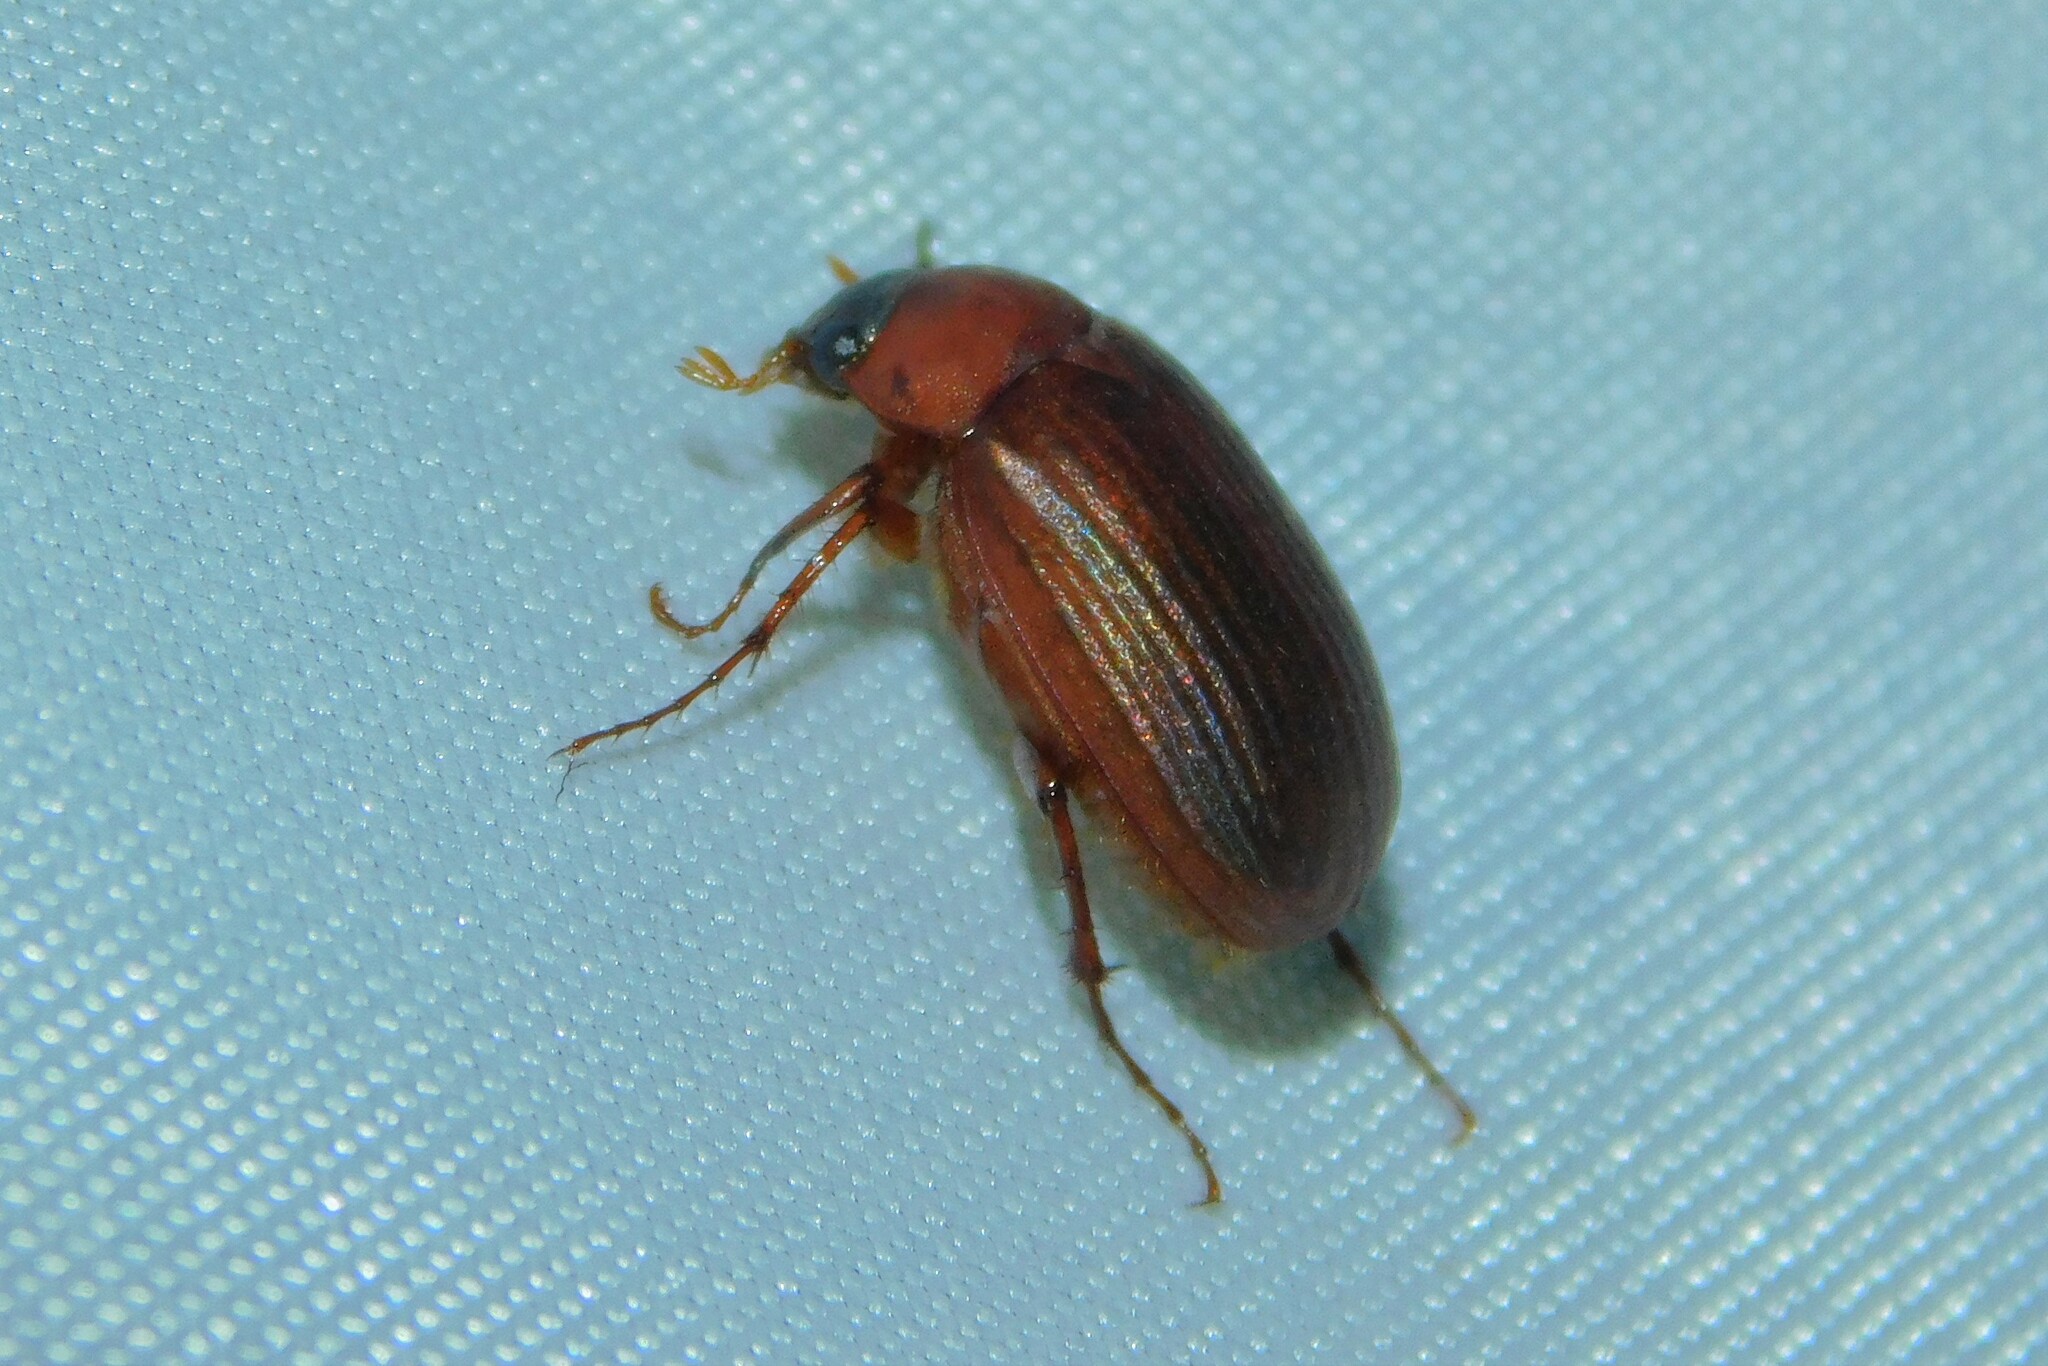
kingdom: Animalia
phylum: Arthropoda
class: Insecta
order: Coleoptera
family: Scarabaeidae
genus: Serica
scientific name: Serica brunnea
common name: Brown chafer
